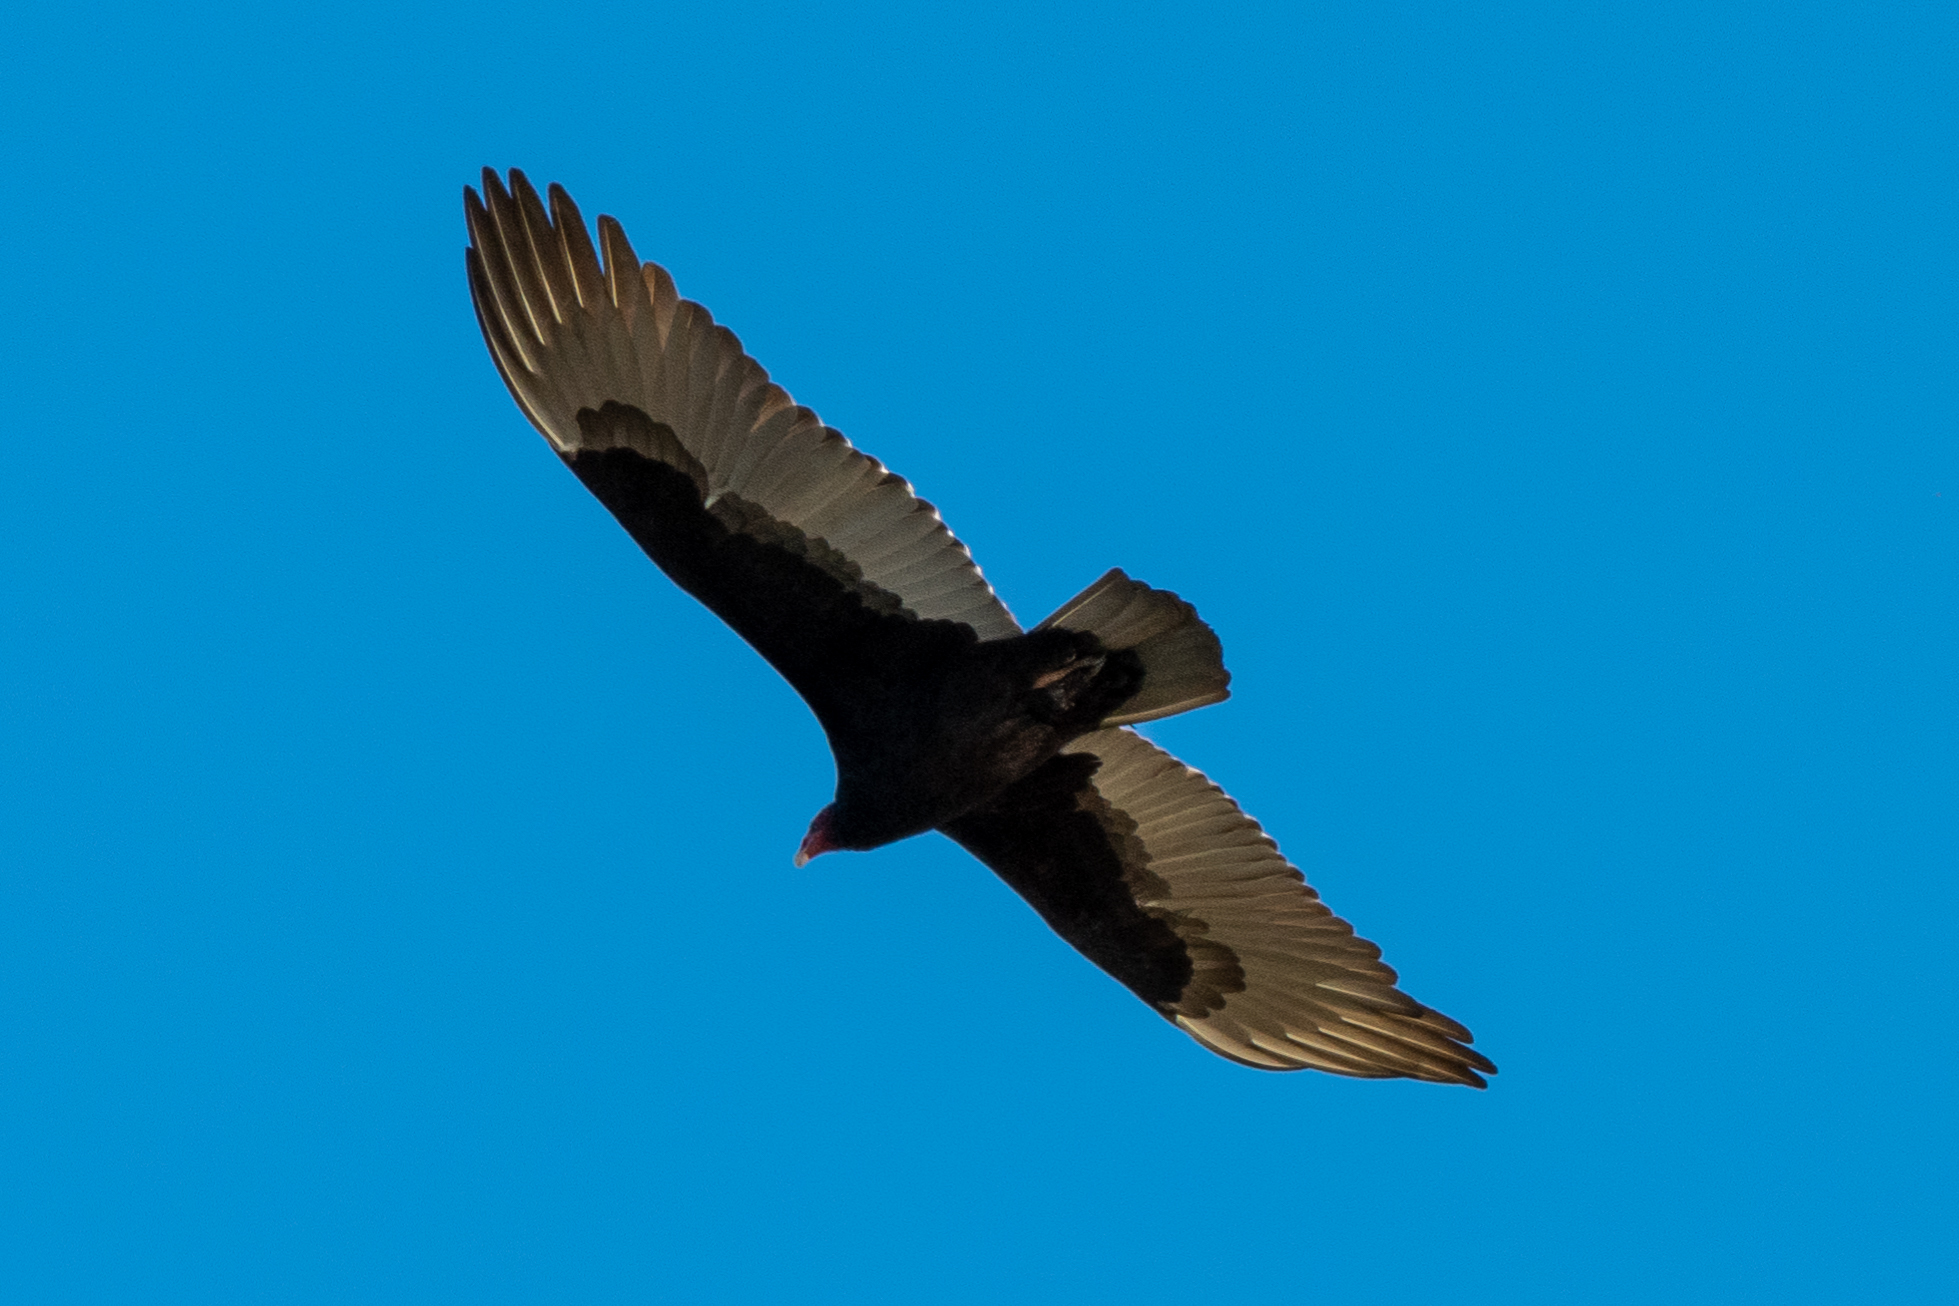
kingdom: Animalia
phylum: Chordata
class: Aves
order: Accipitriformes
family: Cathartidae
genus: Cathartes
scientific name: Cathartes aura
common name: Turkey vulture
